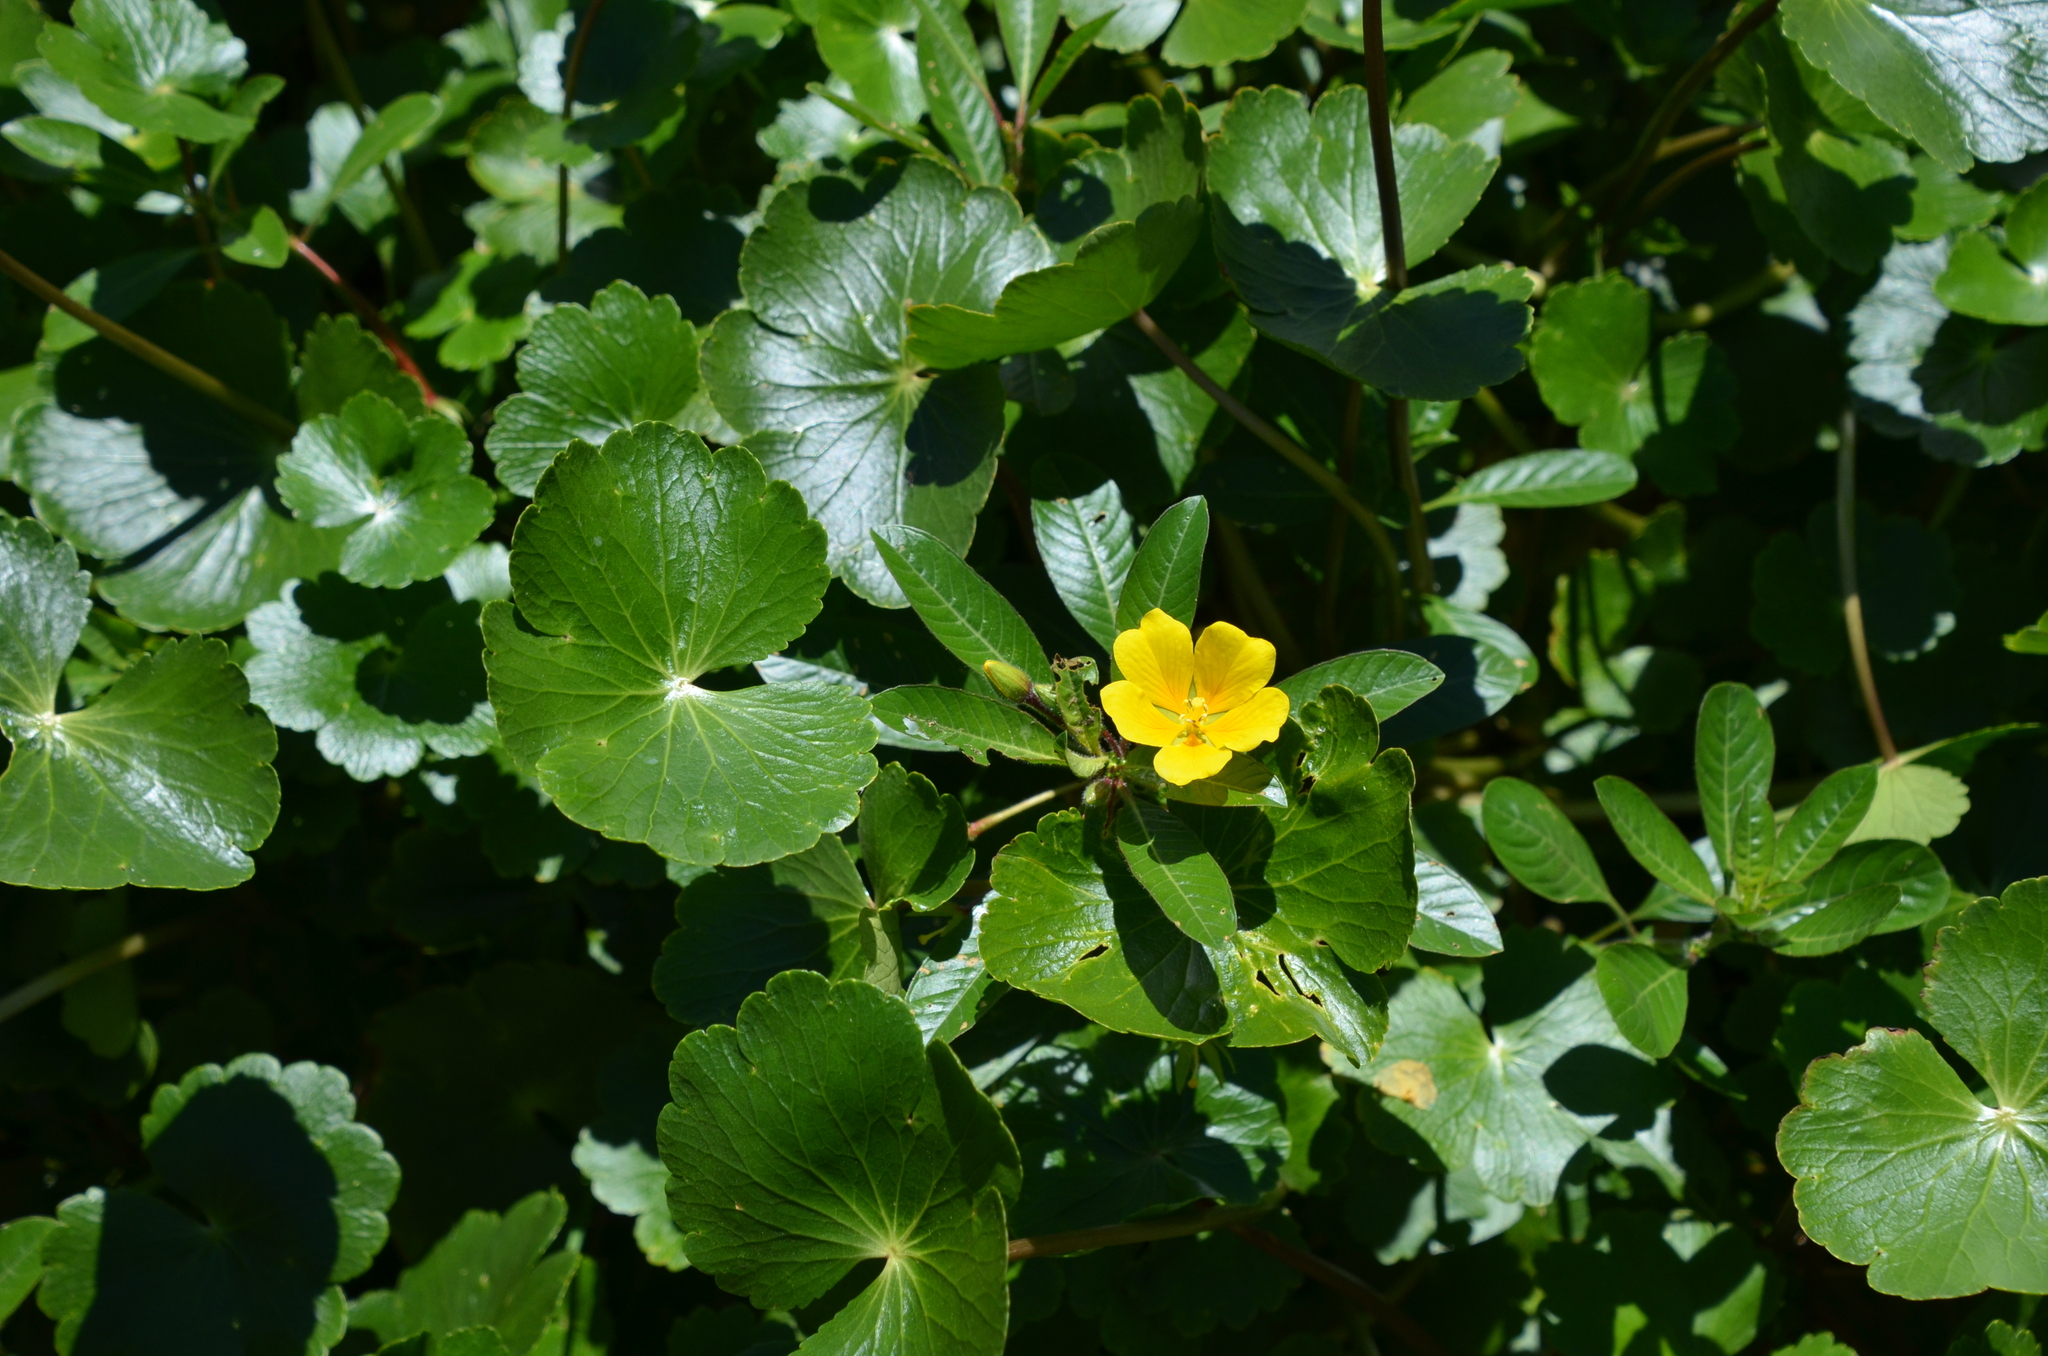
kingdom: Plantae
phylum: Tracheophyta
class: Magnoliopsida
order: Myrtales
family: Onagraceae
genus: Ludwigia
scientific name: Ludwigia peploides
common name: Floating primrose-willow
